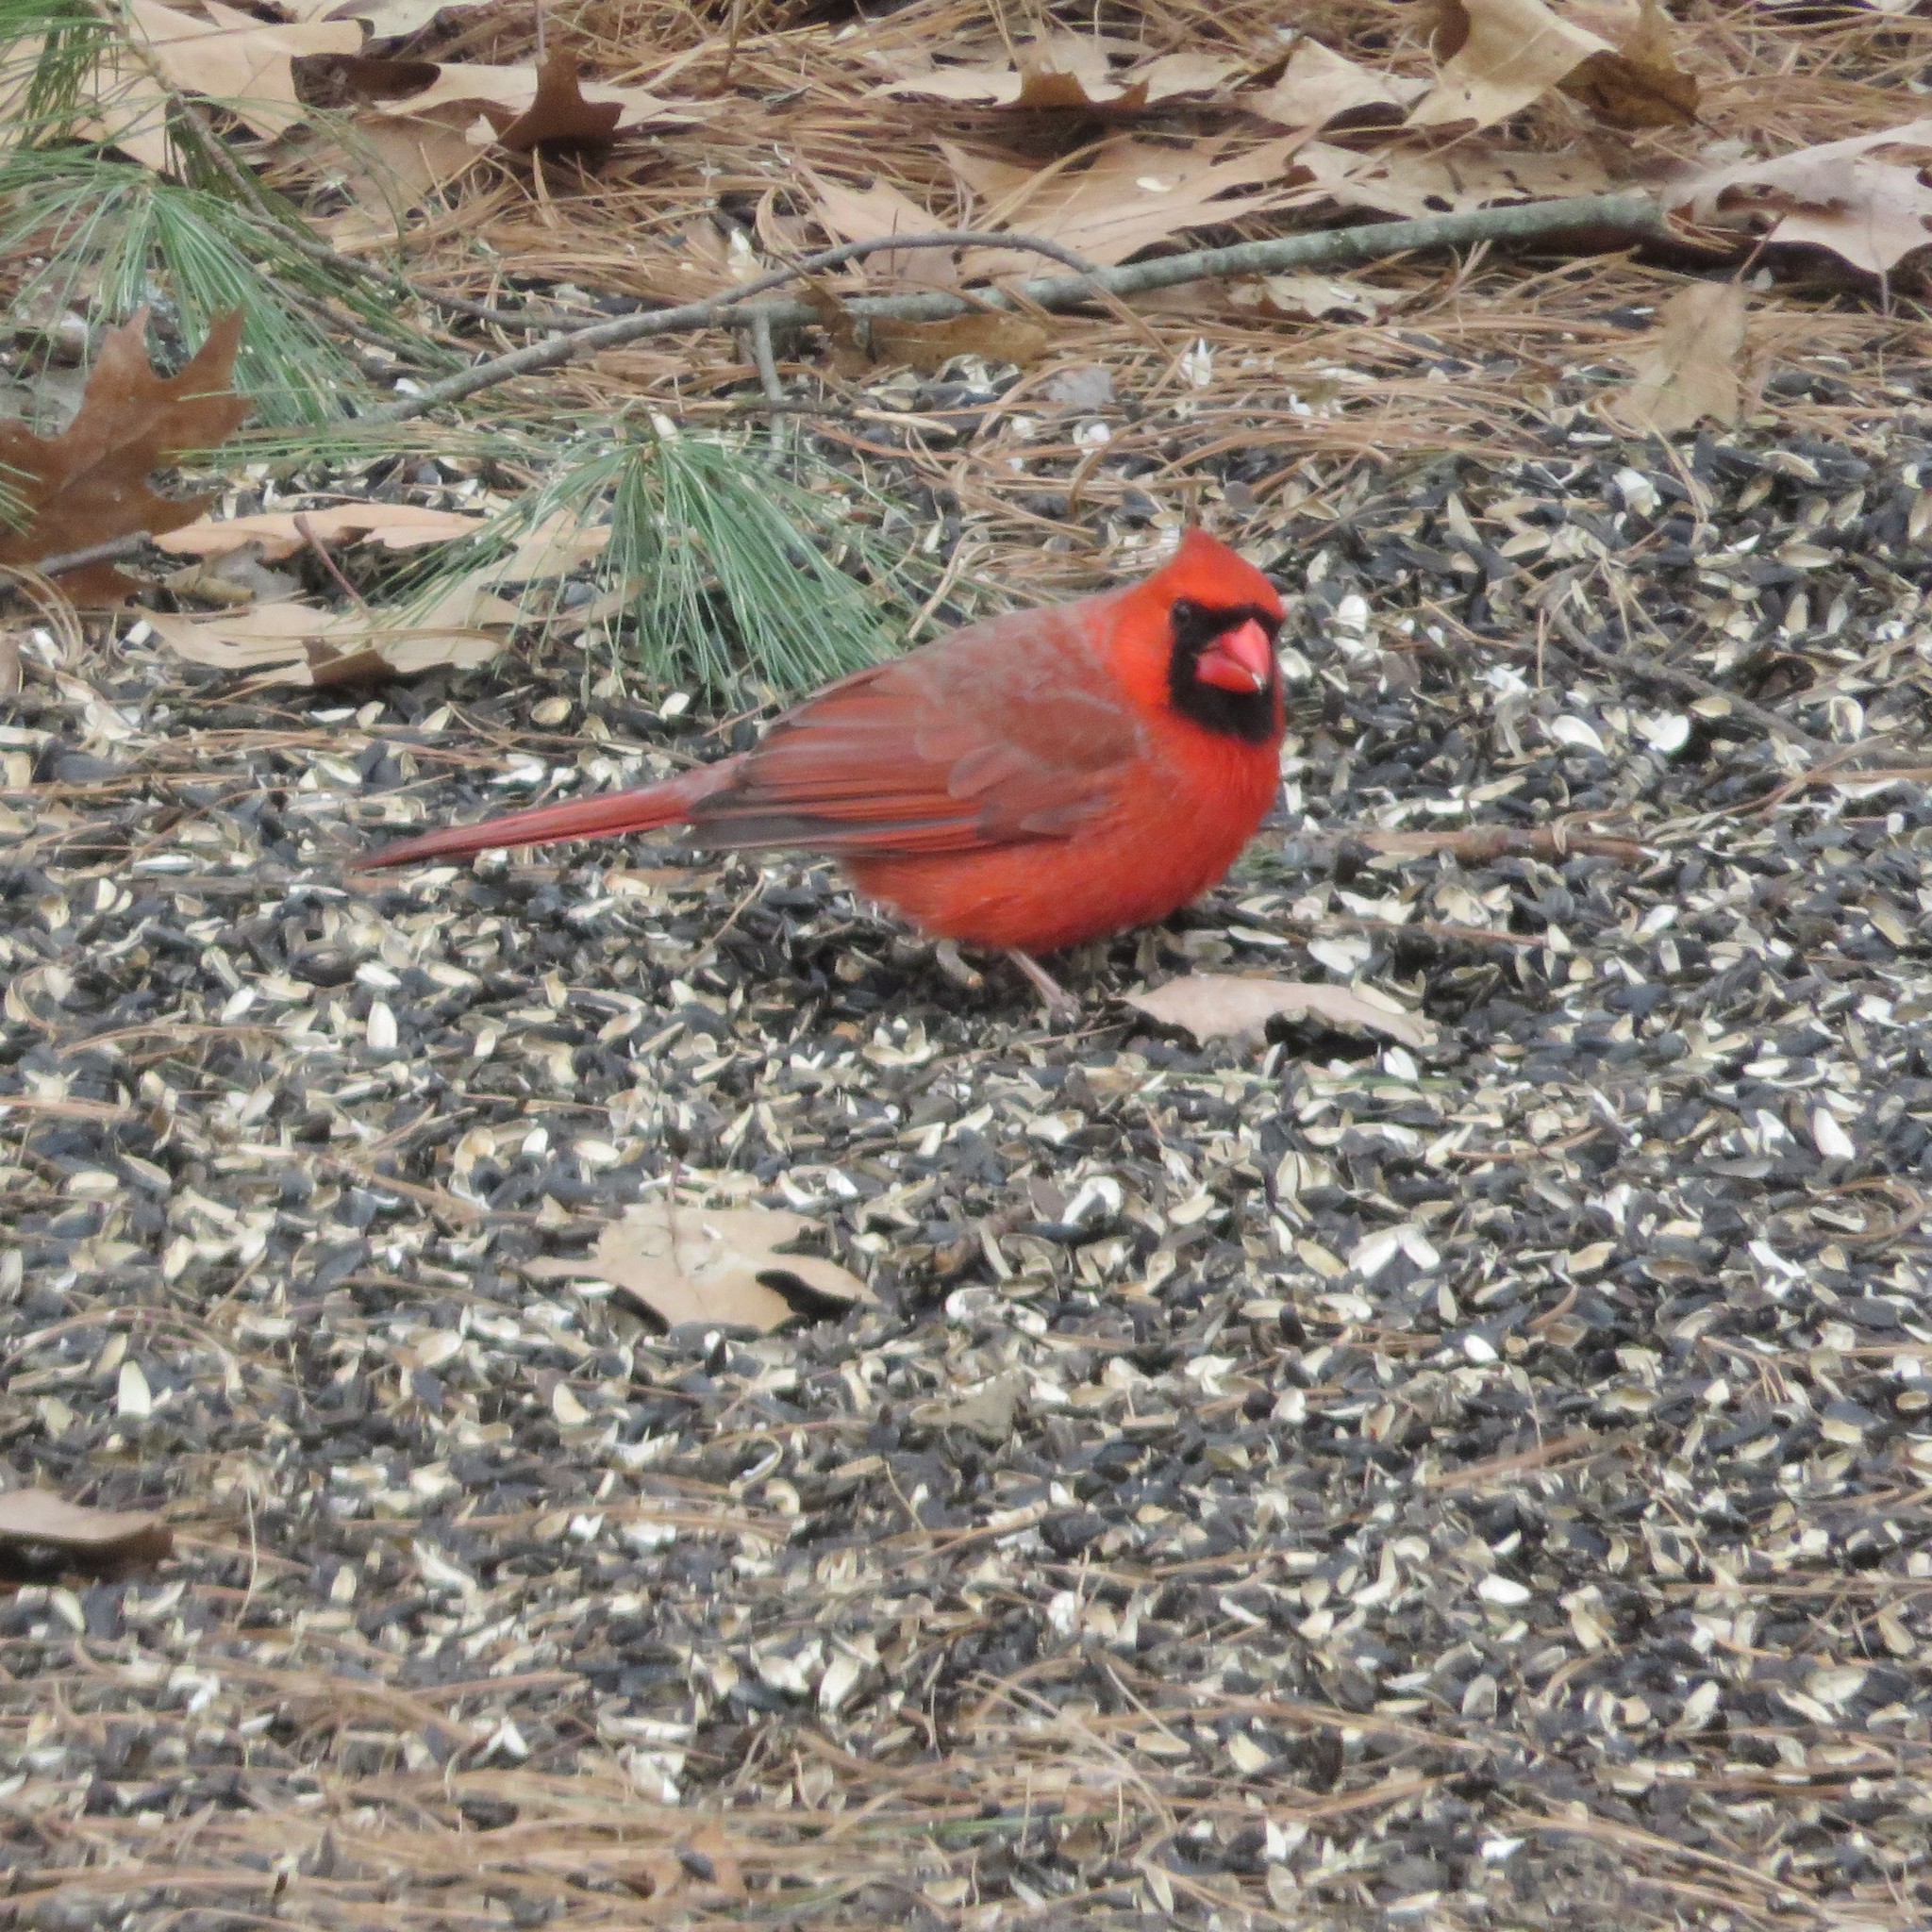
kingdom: Animalia
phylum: Chordata
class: Aves
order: Passeriformes
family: Cardinalidae
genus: Cardinalis
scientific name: Cardinalis cardinalis
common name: Northern cardinal
